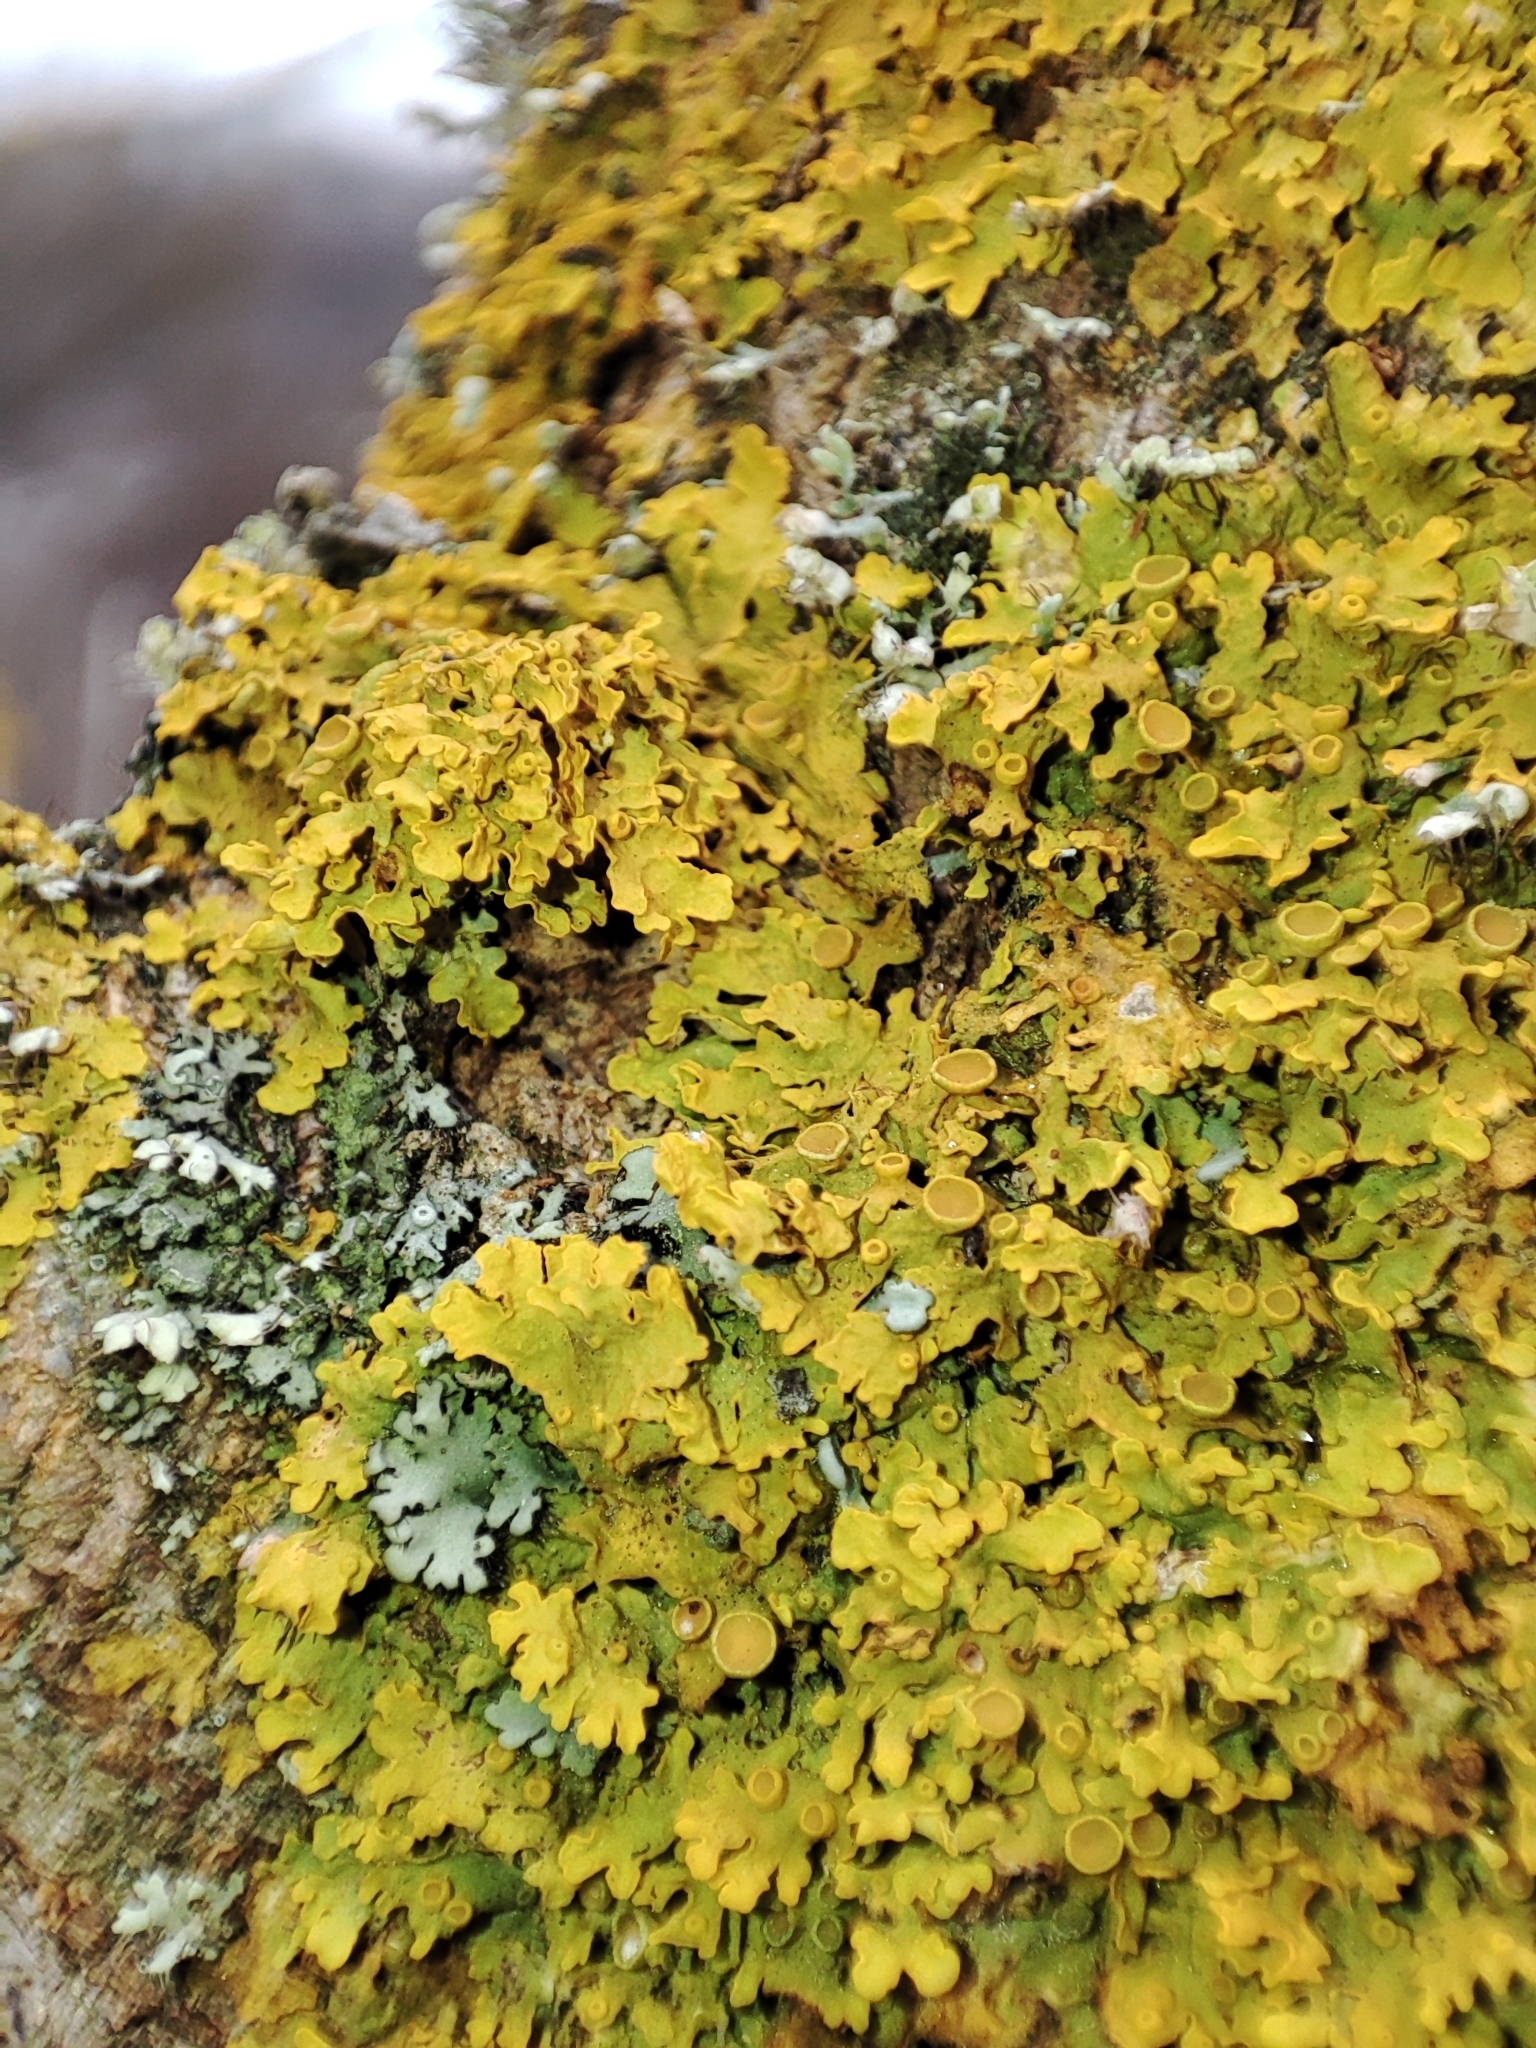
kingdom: Fungi
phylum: Ascomycota
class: Lecanoromycetes
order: Teloschistales
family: Teloschistaceae
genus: Xanthoria
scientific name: Xanthoria parietina
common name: Common orange lichen
